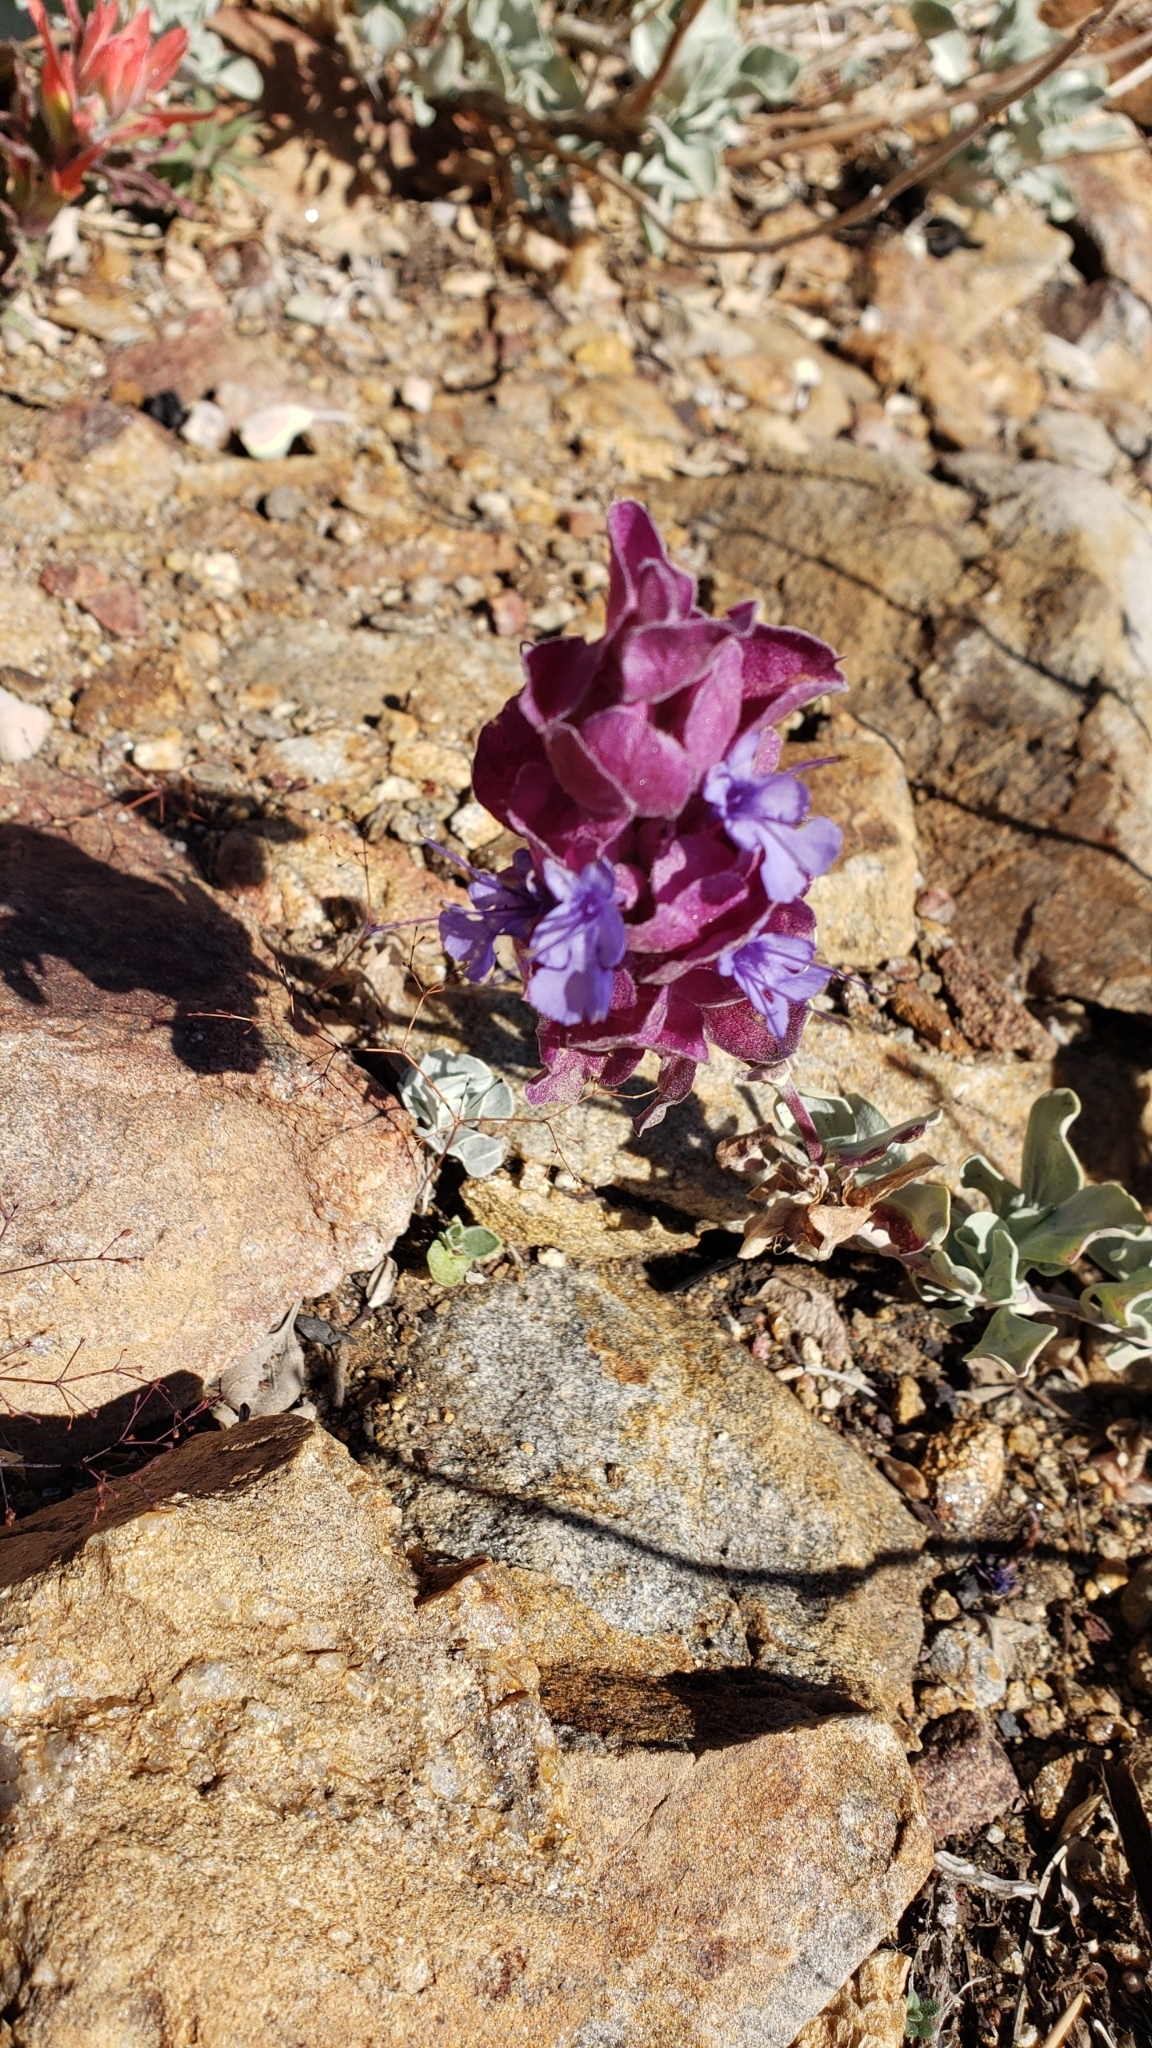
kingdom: Plantae
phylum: Tracheophyta
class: Magnoliopsida
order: Lamiales
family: Lamiaceae
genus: Salvia
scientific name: Salvia pachyphylla
